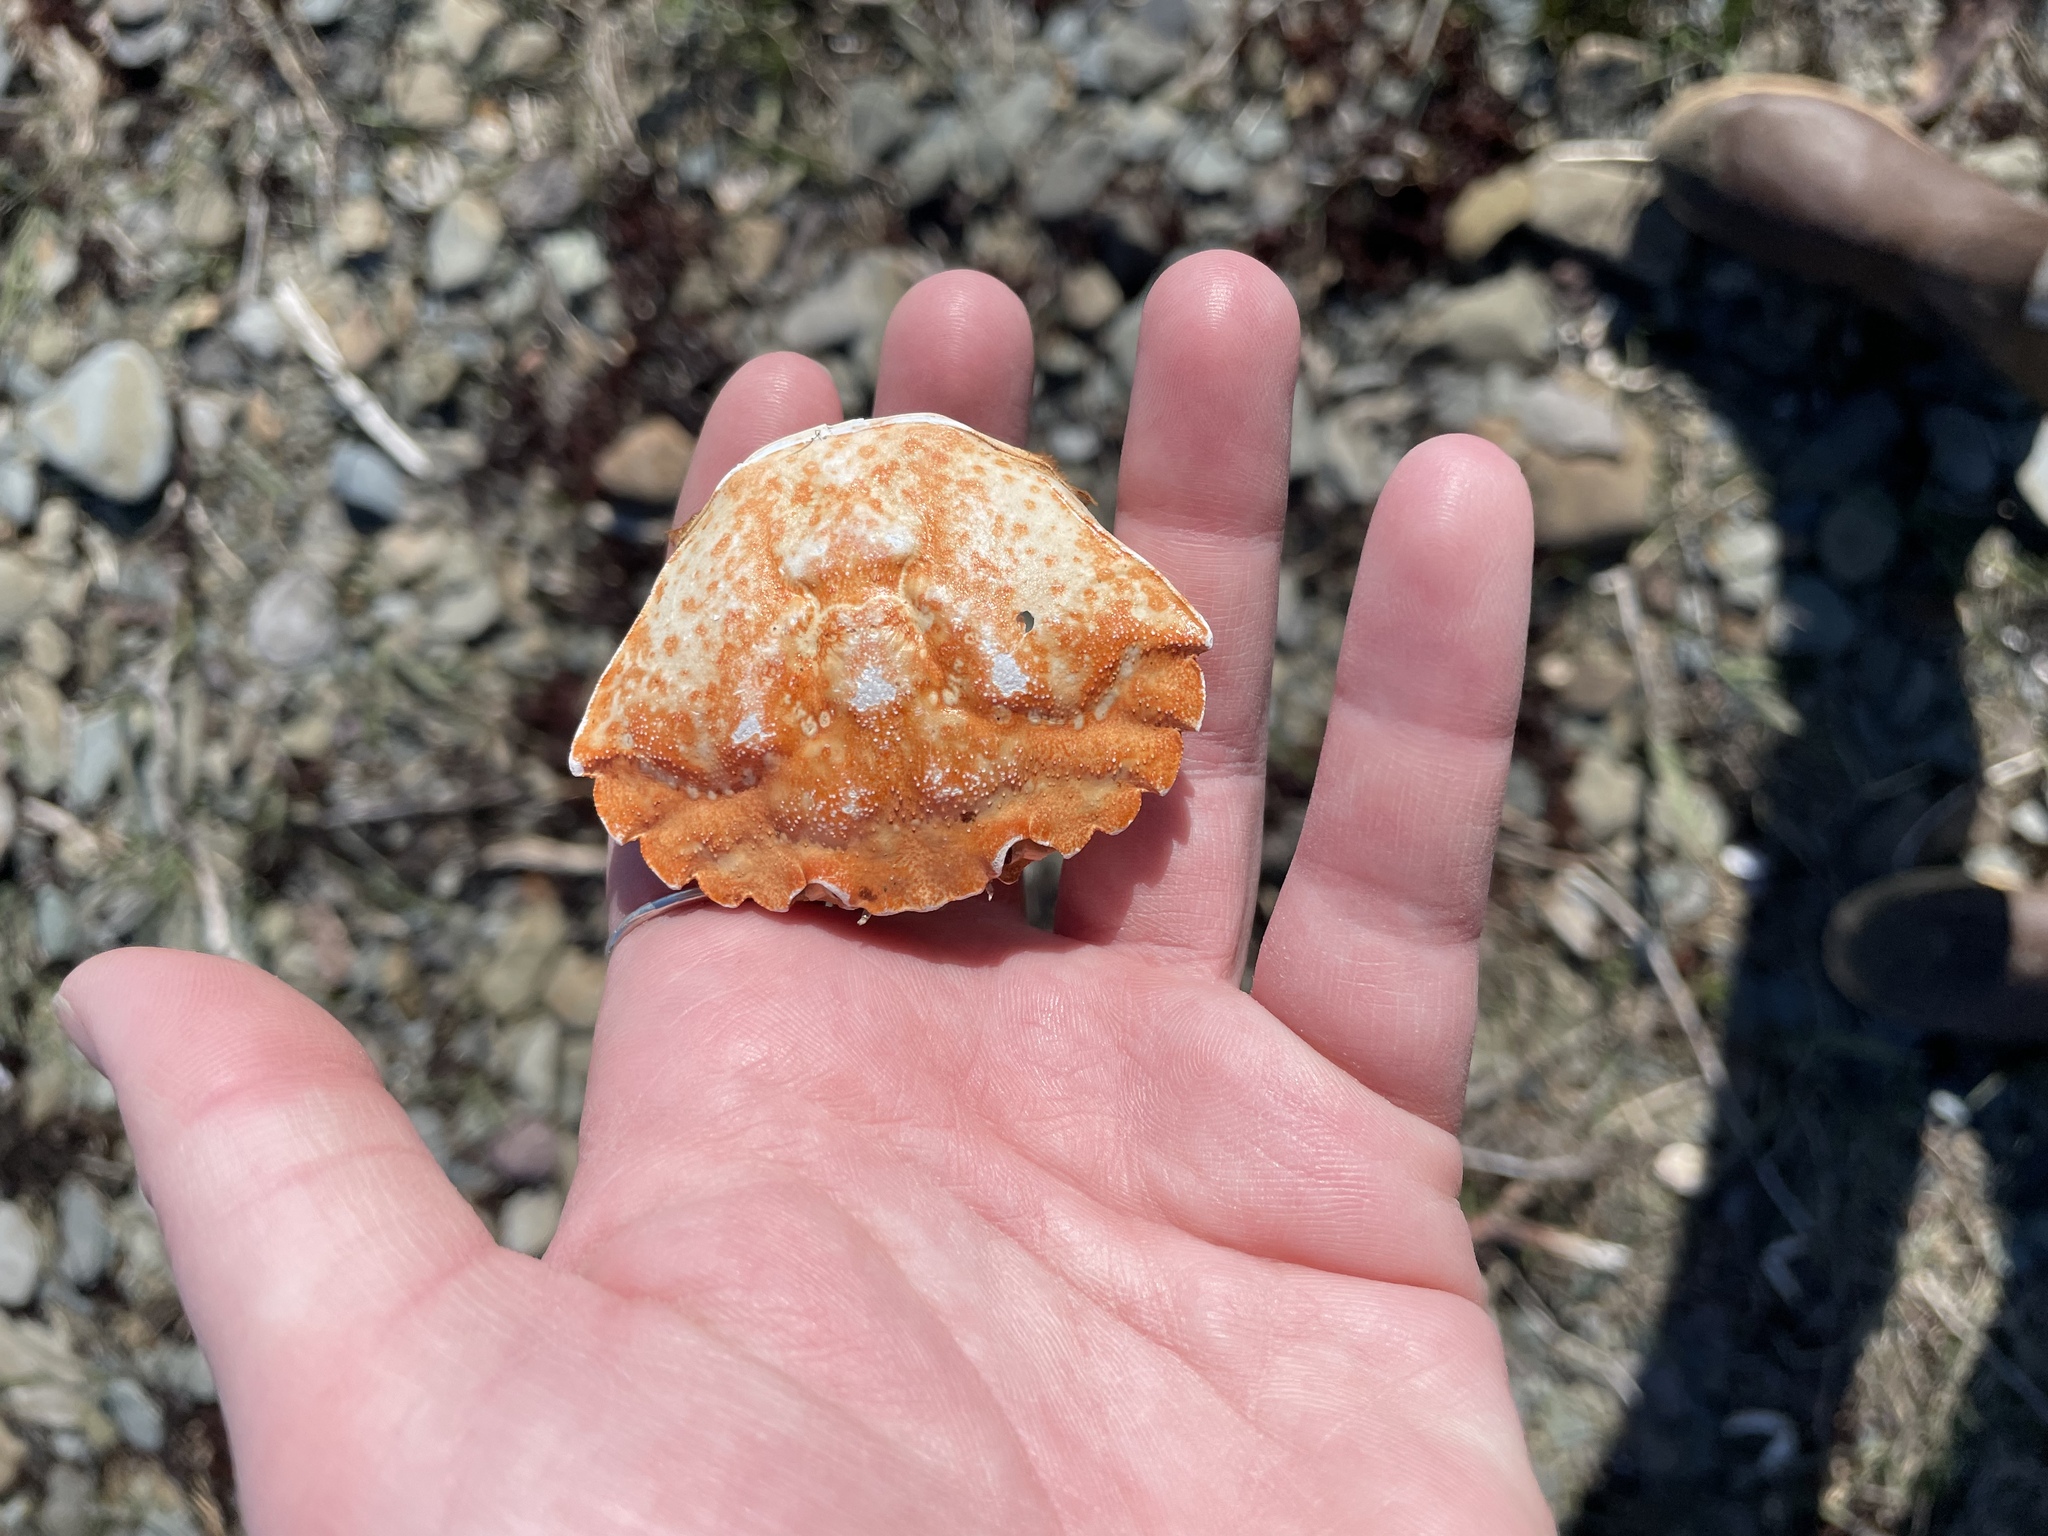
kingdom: Animalia
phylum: Arthropoda
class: Malacostraca
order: Decapoda
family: Carcinidae
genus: Carcinus
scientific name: Carcinus maenas
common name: European green crab
